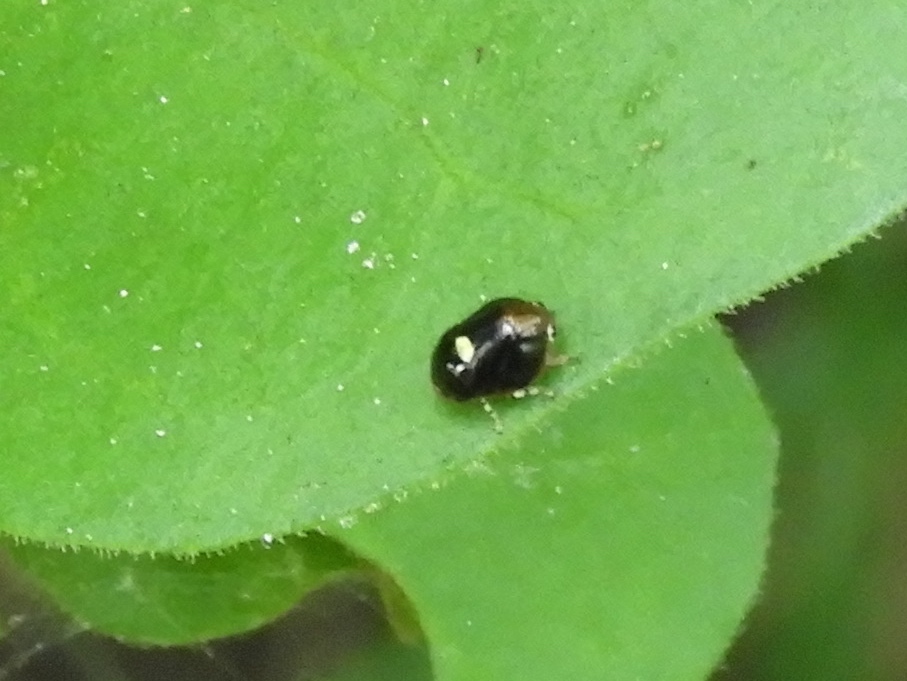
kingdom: Animalia
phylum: Arthropoda
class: Insecta
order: Hemiptera
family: Clastopteridae
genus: Clastoptera
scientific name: Clastoptera
